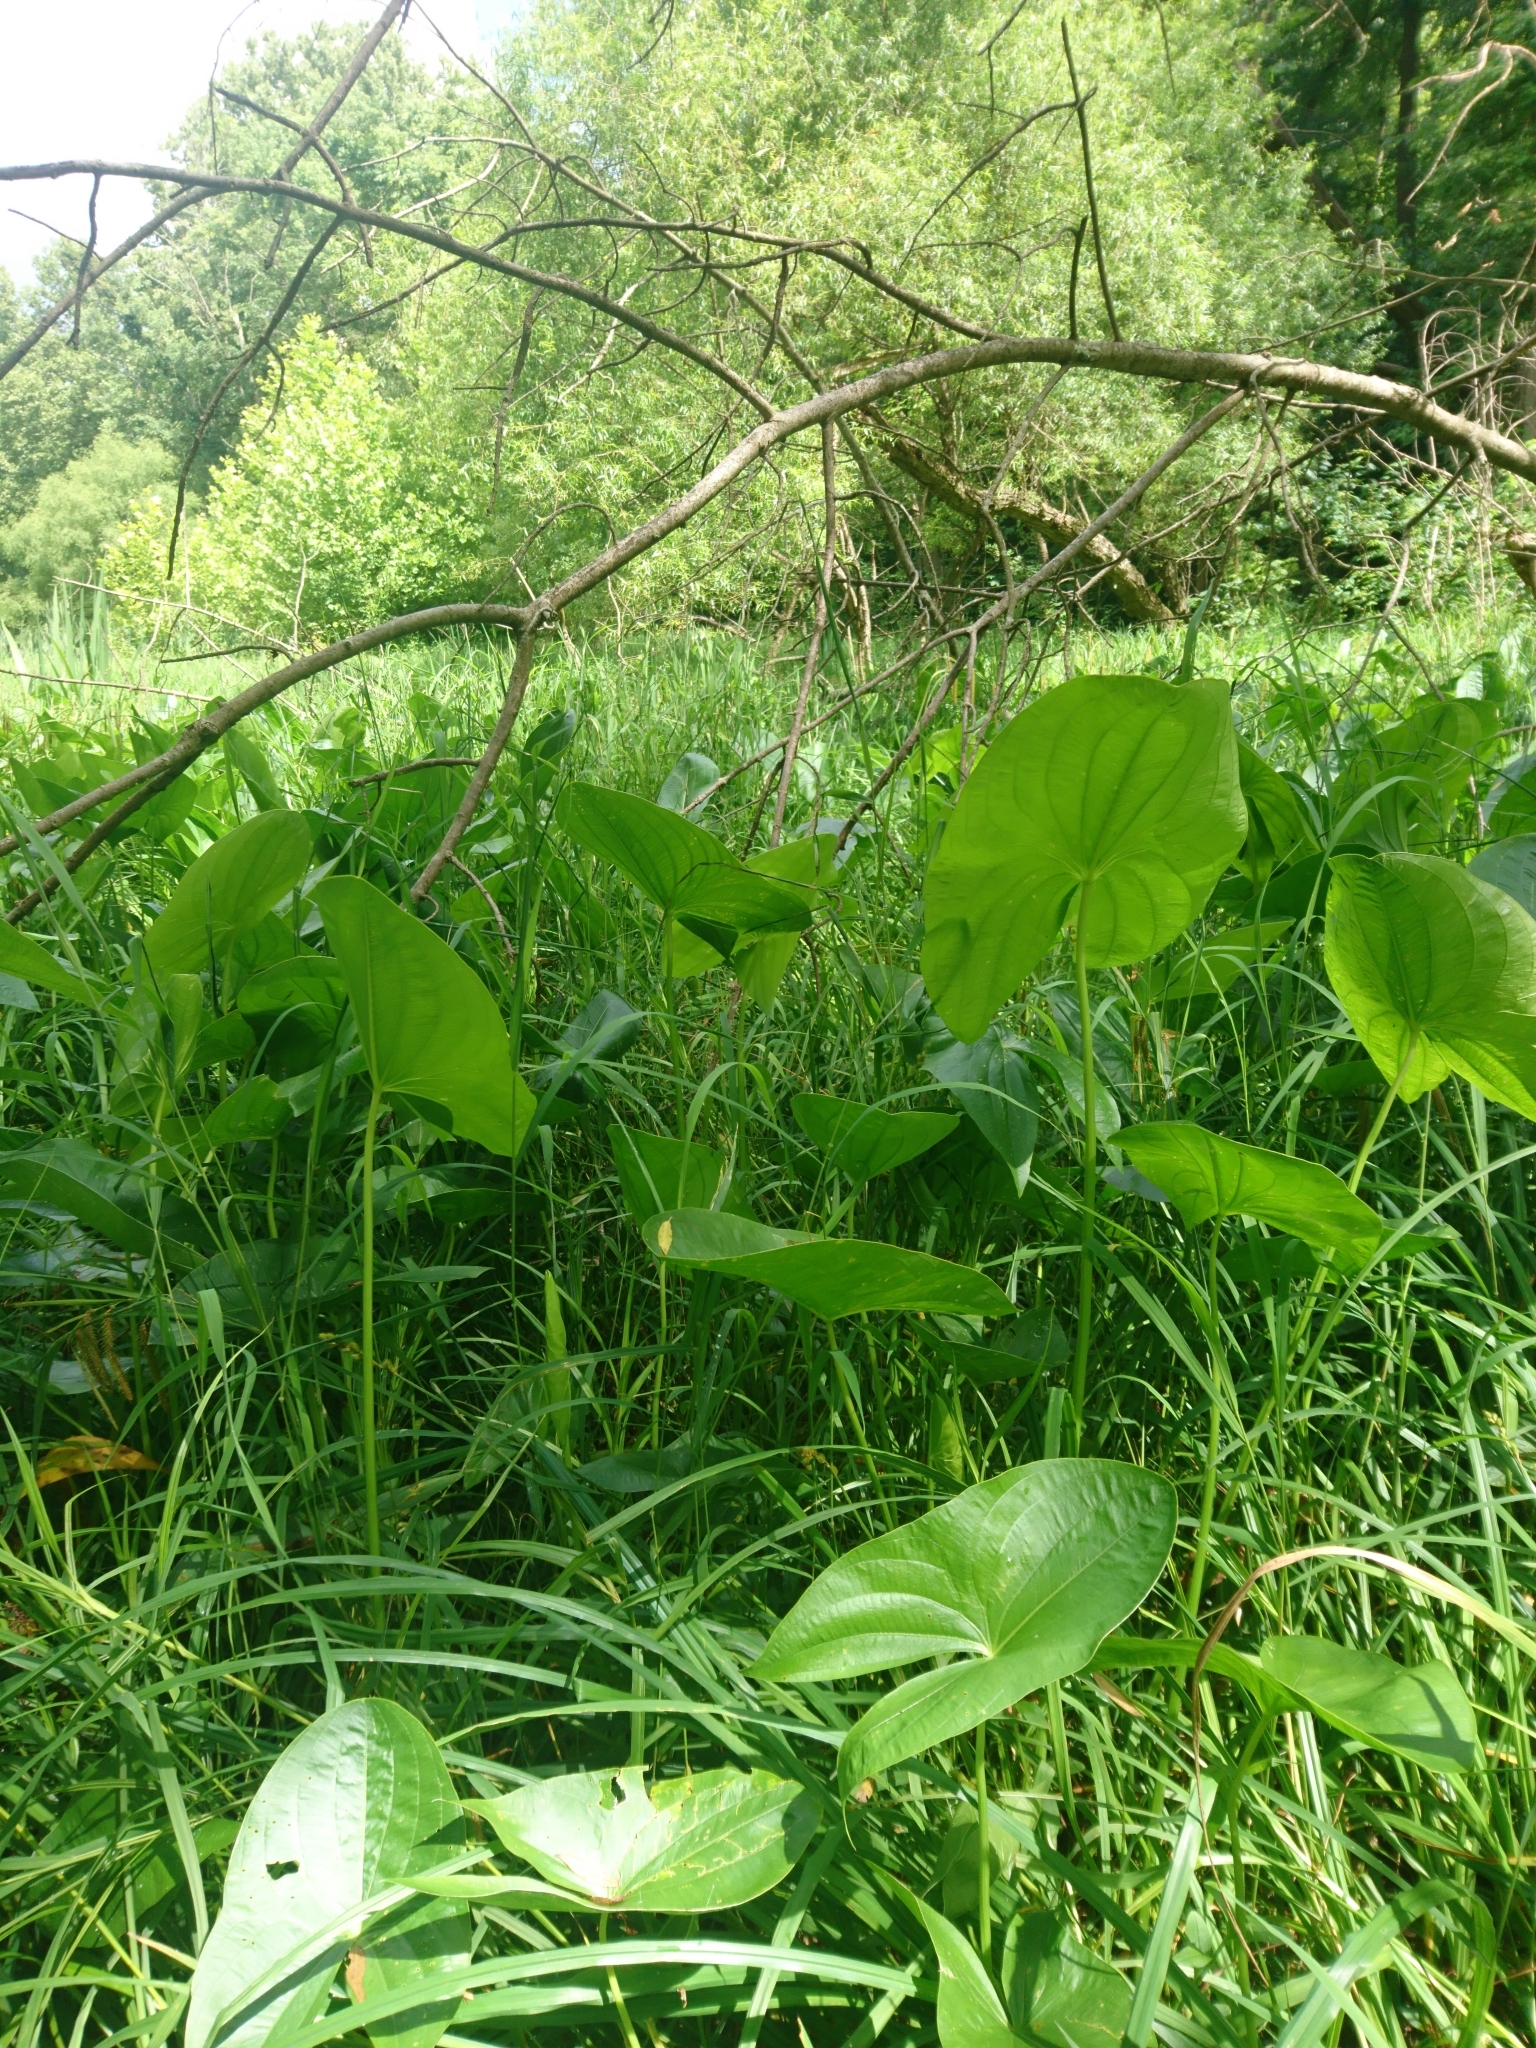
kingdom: Plantae
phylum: Tracheophyta
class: Liliopsida
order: Alismatales
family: Alismataceae
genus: Sagittaria
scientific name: Sagittaria latifolia
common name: Duck-potato
